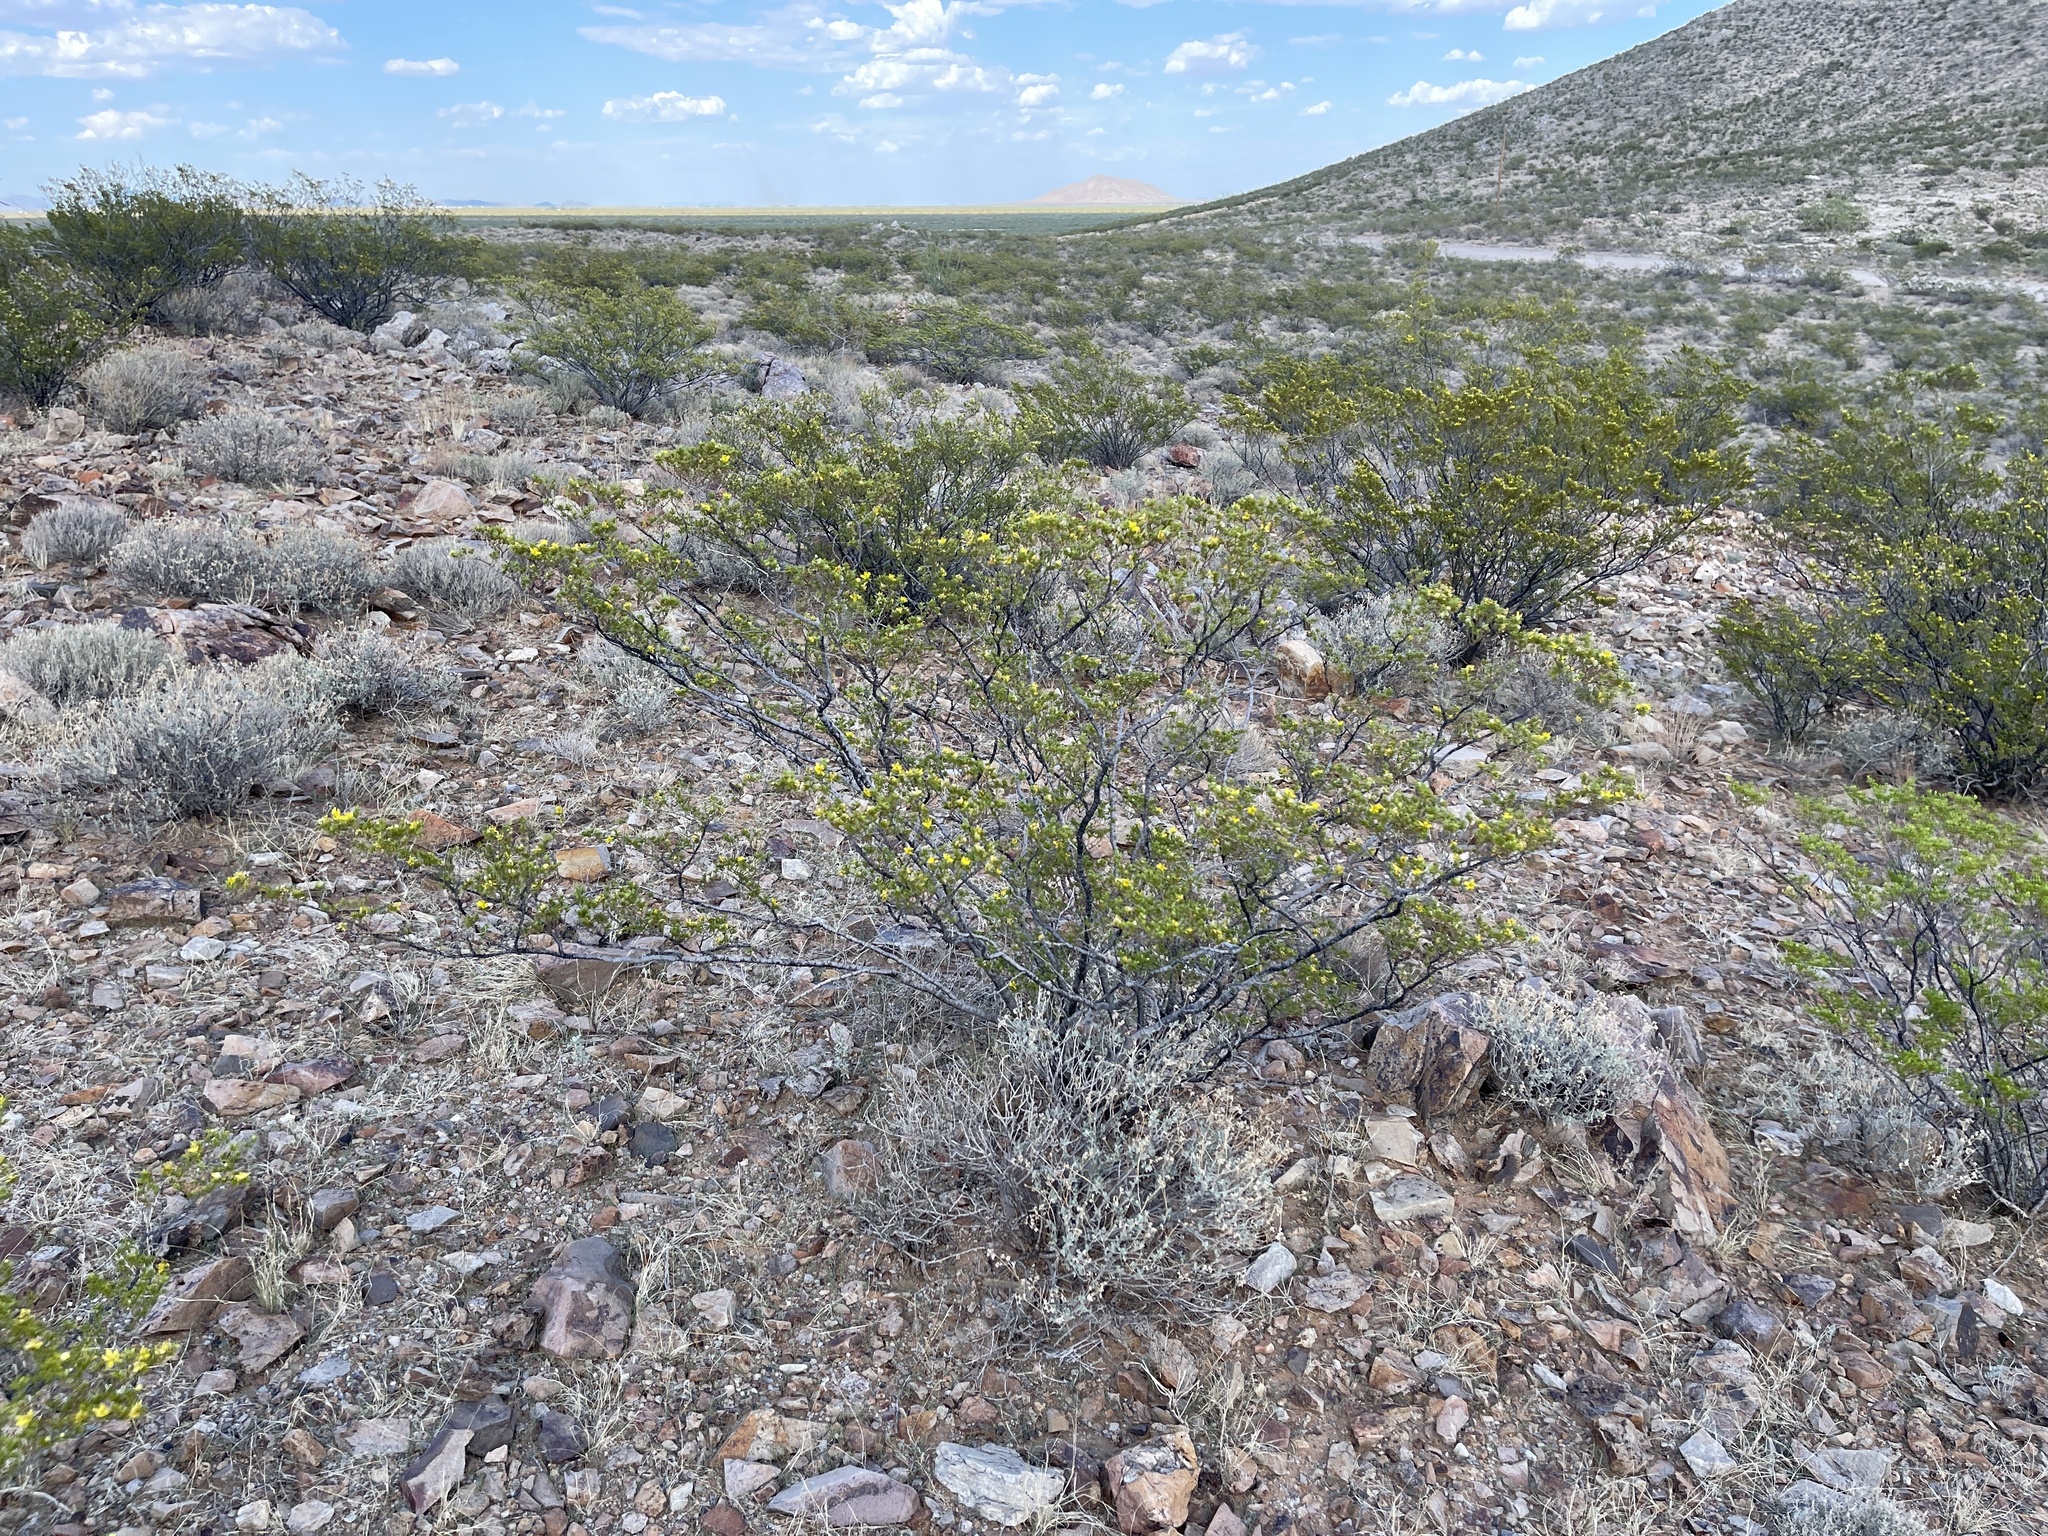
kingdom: Plantae
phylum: Tracheophyta
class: Magnoliopsida
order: Zygophyllales
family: Zygophyllaceae
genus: Larrea
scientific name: Larrea tridentata
